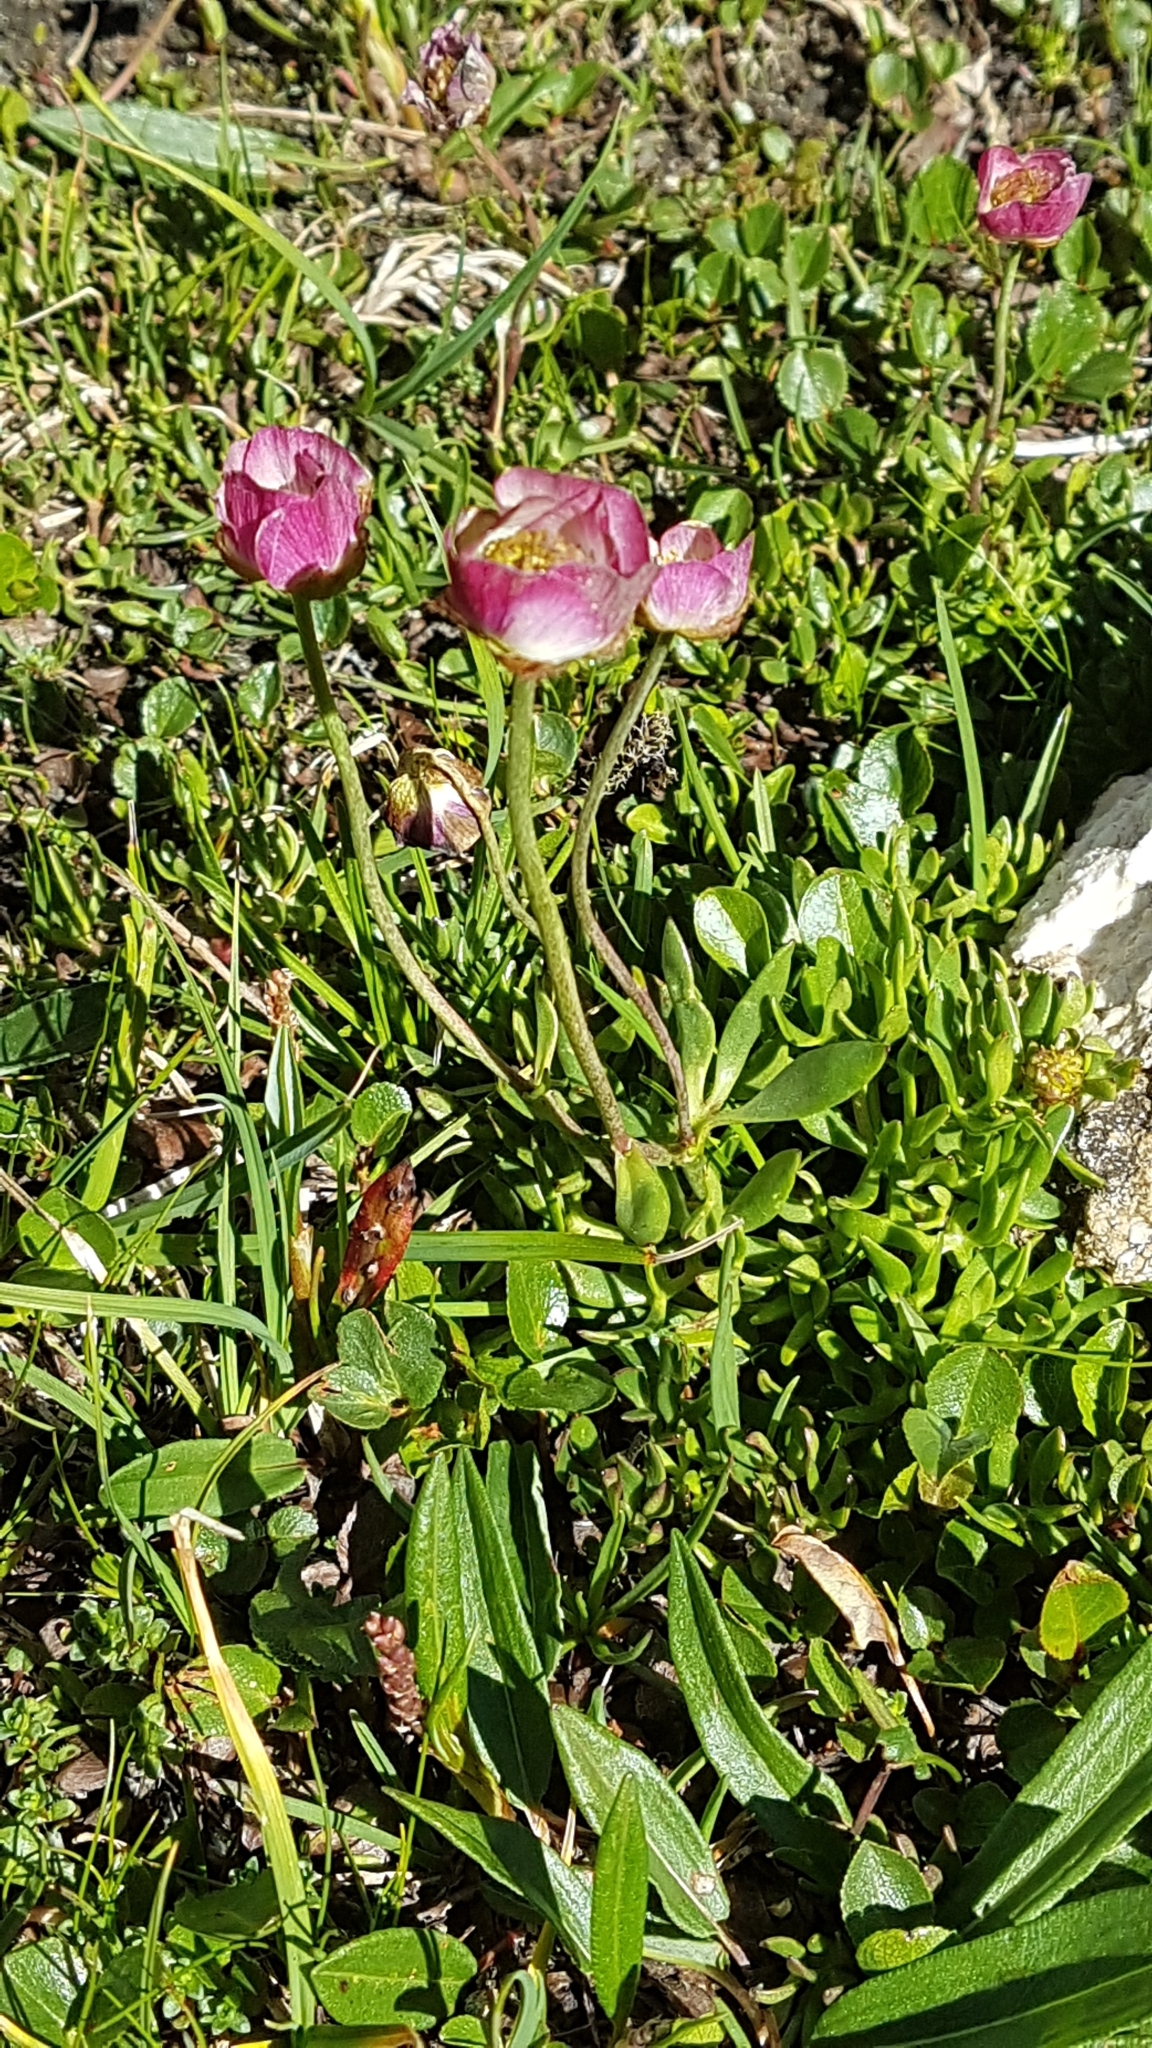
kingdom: Plantae
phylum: Tracheophyta
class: Magnoliopsida
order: Ranunculales
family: Ranunculaceae
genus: Ranunculus
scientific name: Ranunculus glacialis
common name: Glacier buttercup
